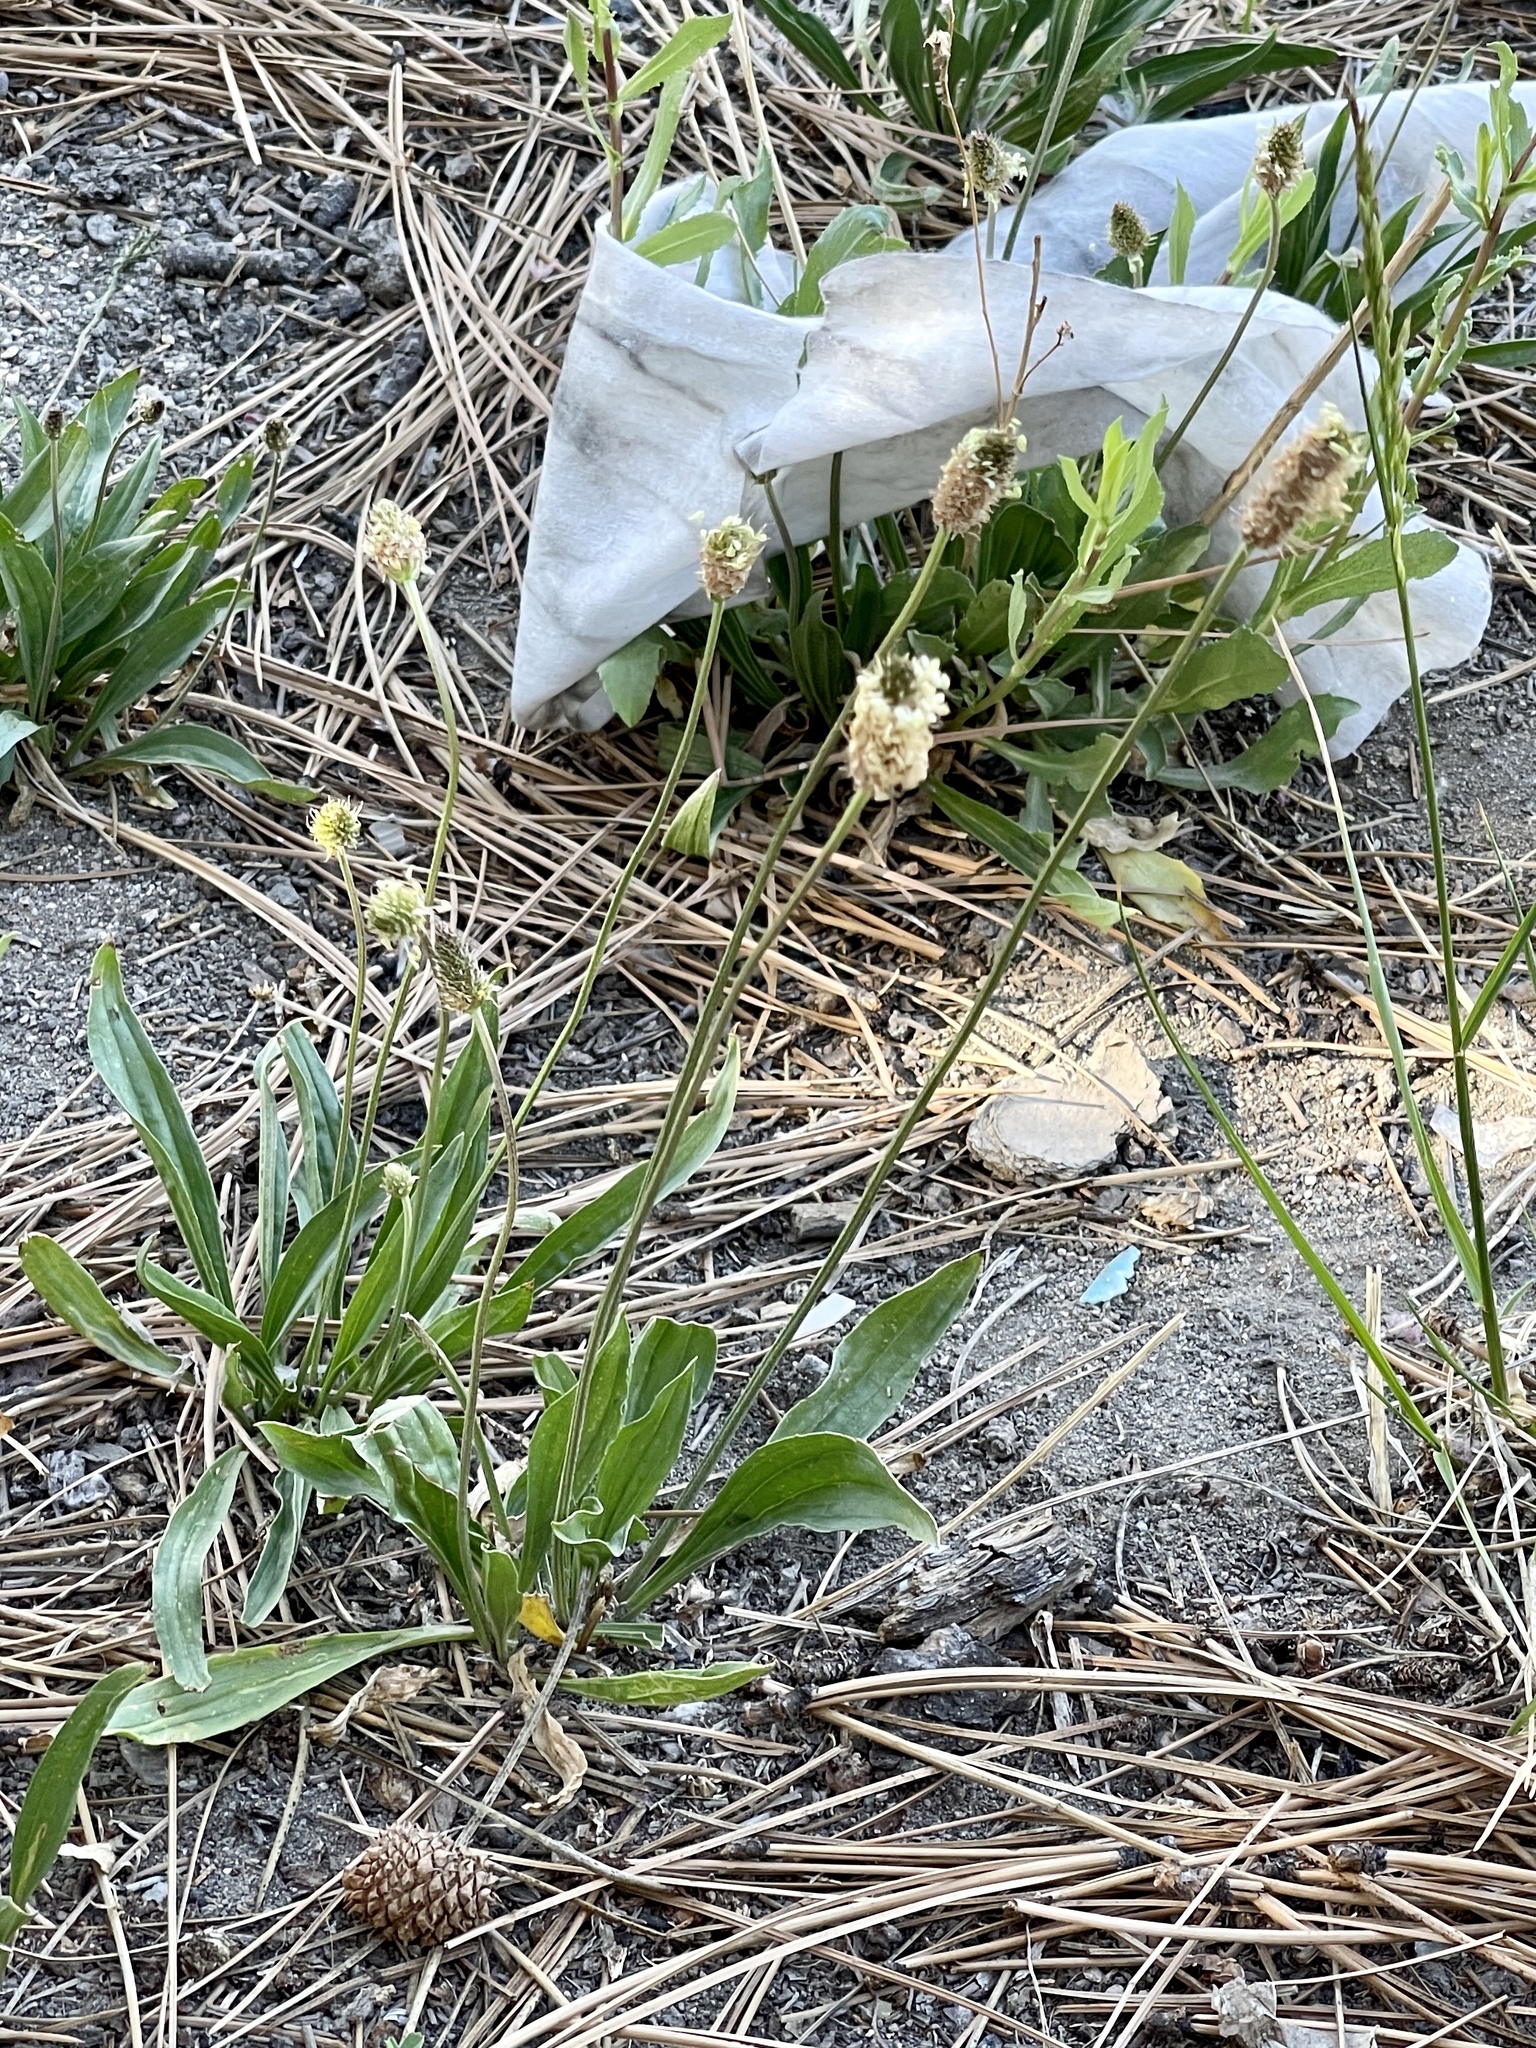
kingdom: Plantae
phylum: Tracheophyta
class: Magnoliopsida
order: Lamiales
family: Plantaginaceae
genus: Plantago
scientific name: Plantago lanceolata
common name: Ribwort plantain
